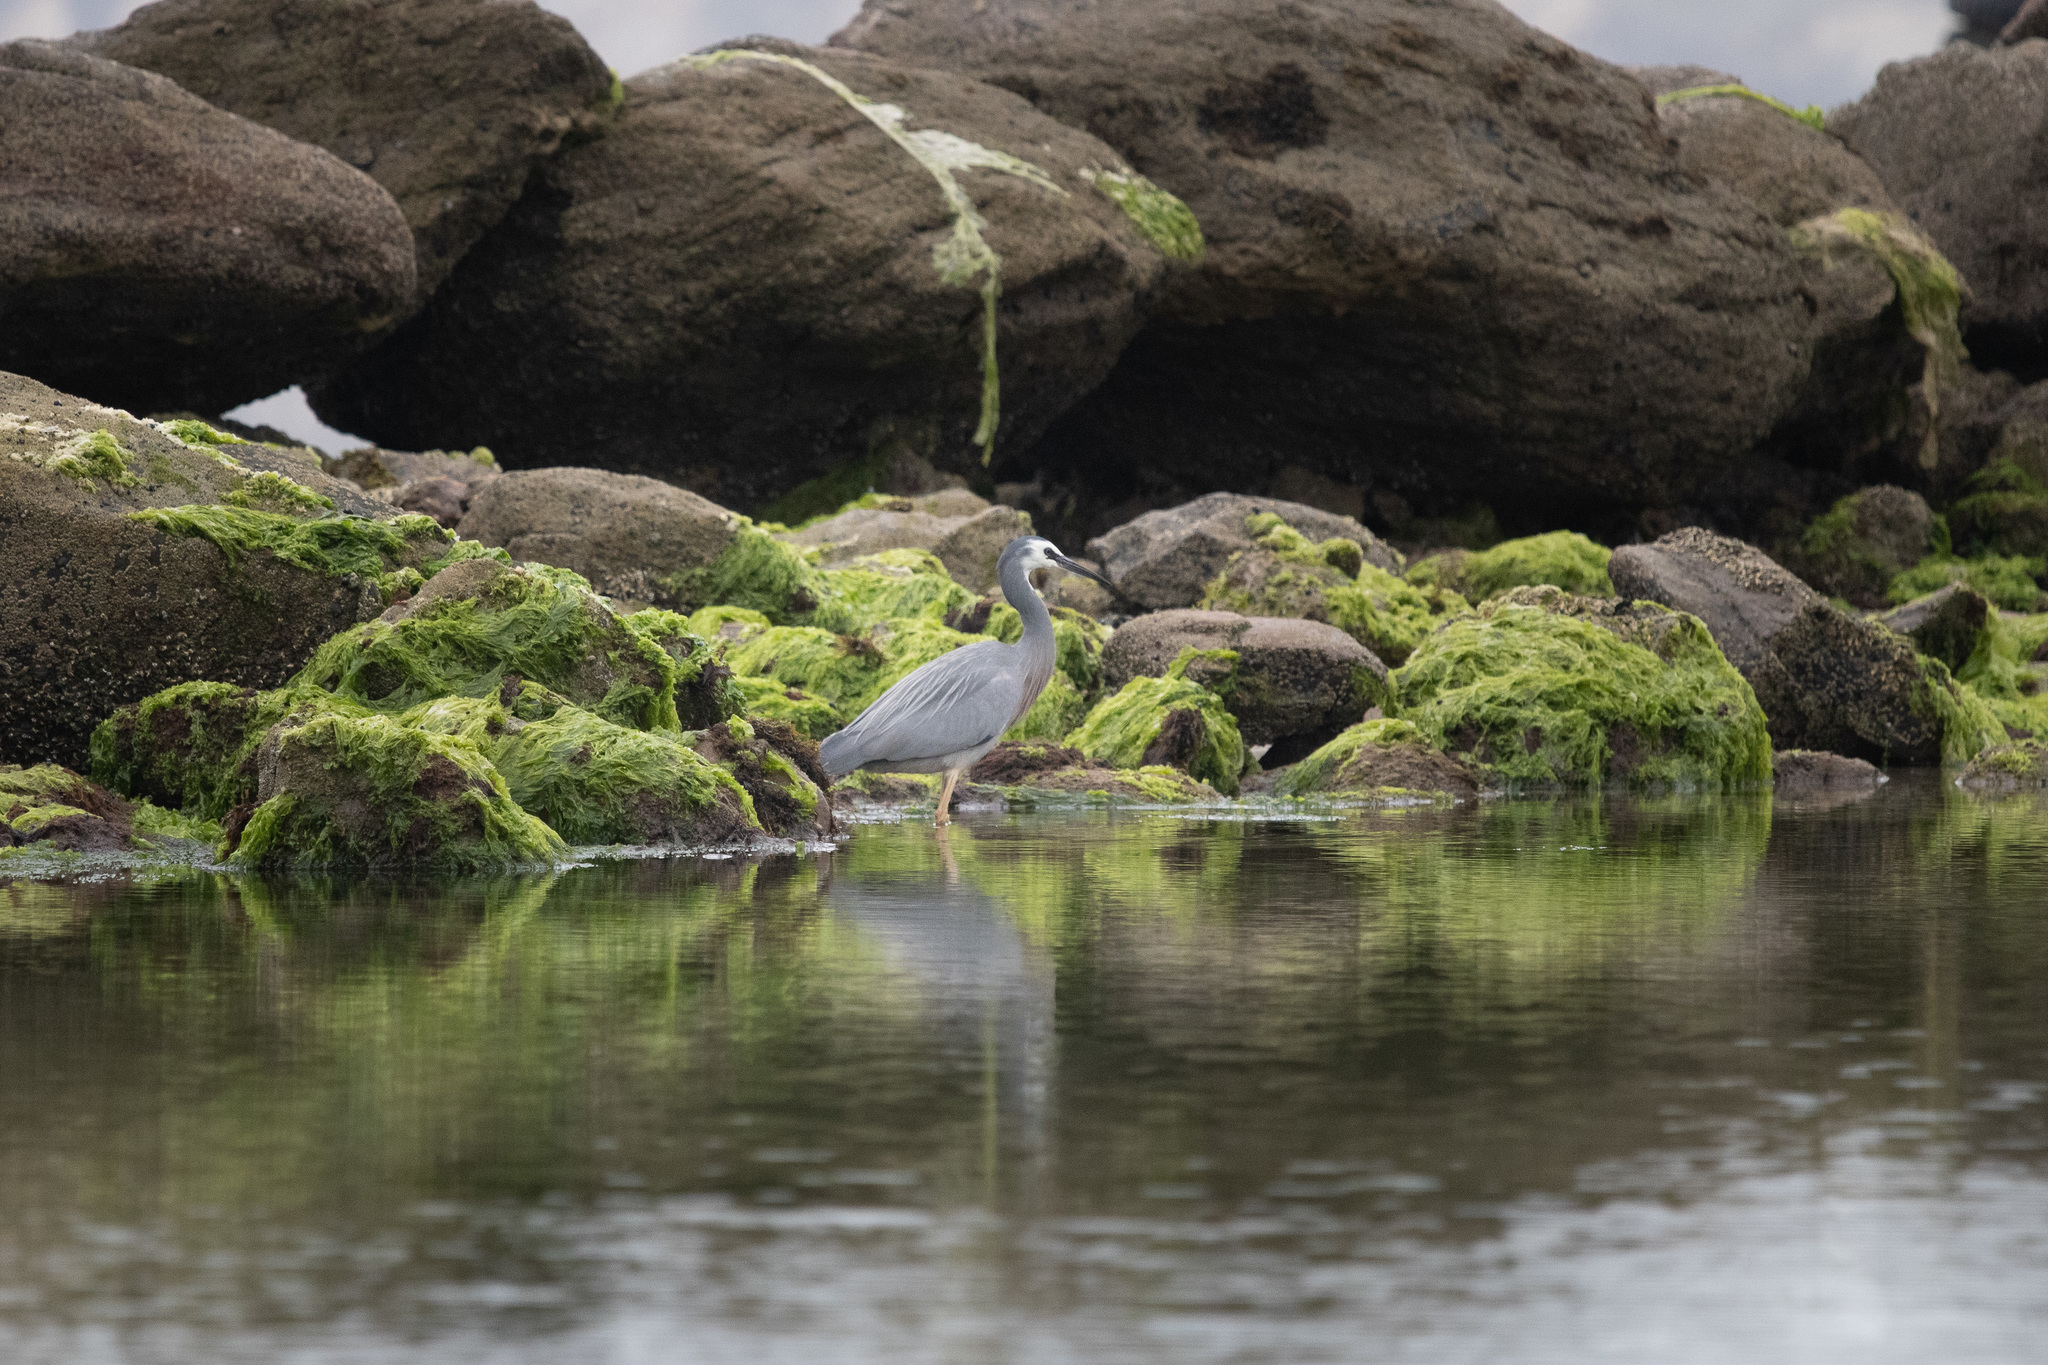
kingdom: Animalia
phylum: Chordata
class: Aves
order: Pelecaniformes
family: Ardeidae
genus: Egretta
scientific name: Egretta novaehollandiae
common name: White-faced heron
